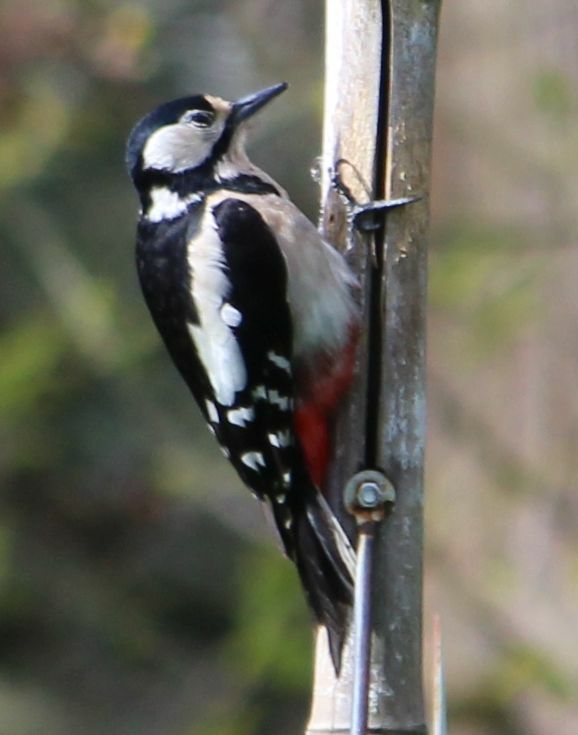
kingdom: Animalia
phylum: Chordata
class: Aves
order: Piciformes
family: Picidae
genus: Dendrocopos
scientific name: Dendrocopos major
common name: Great spotted woodpecker
